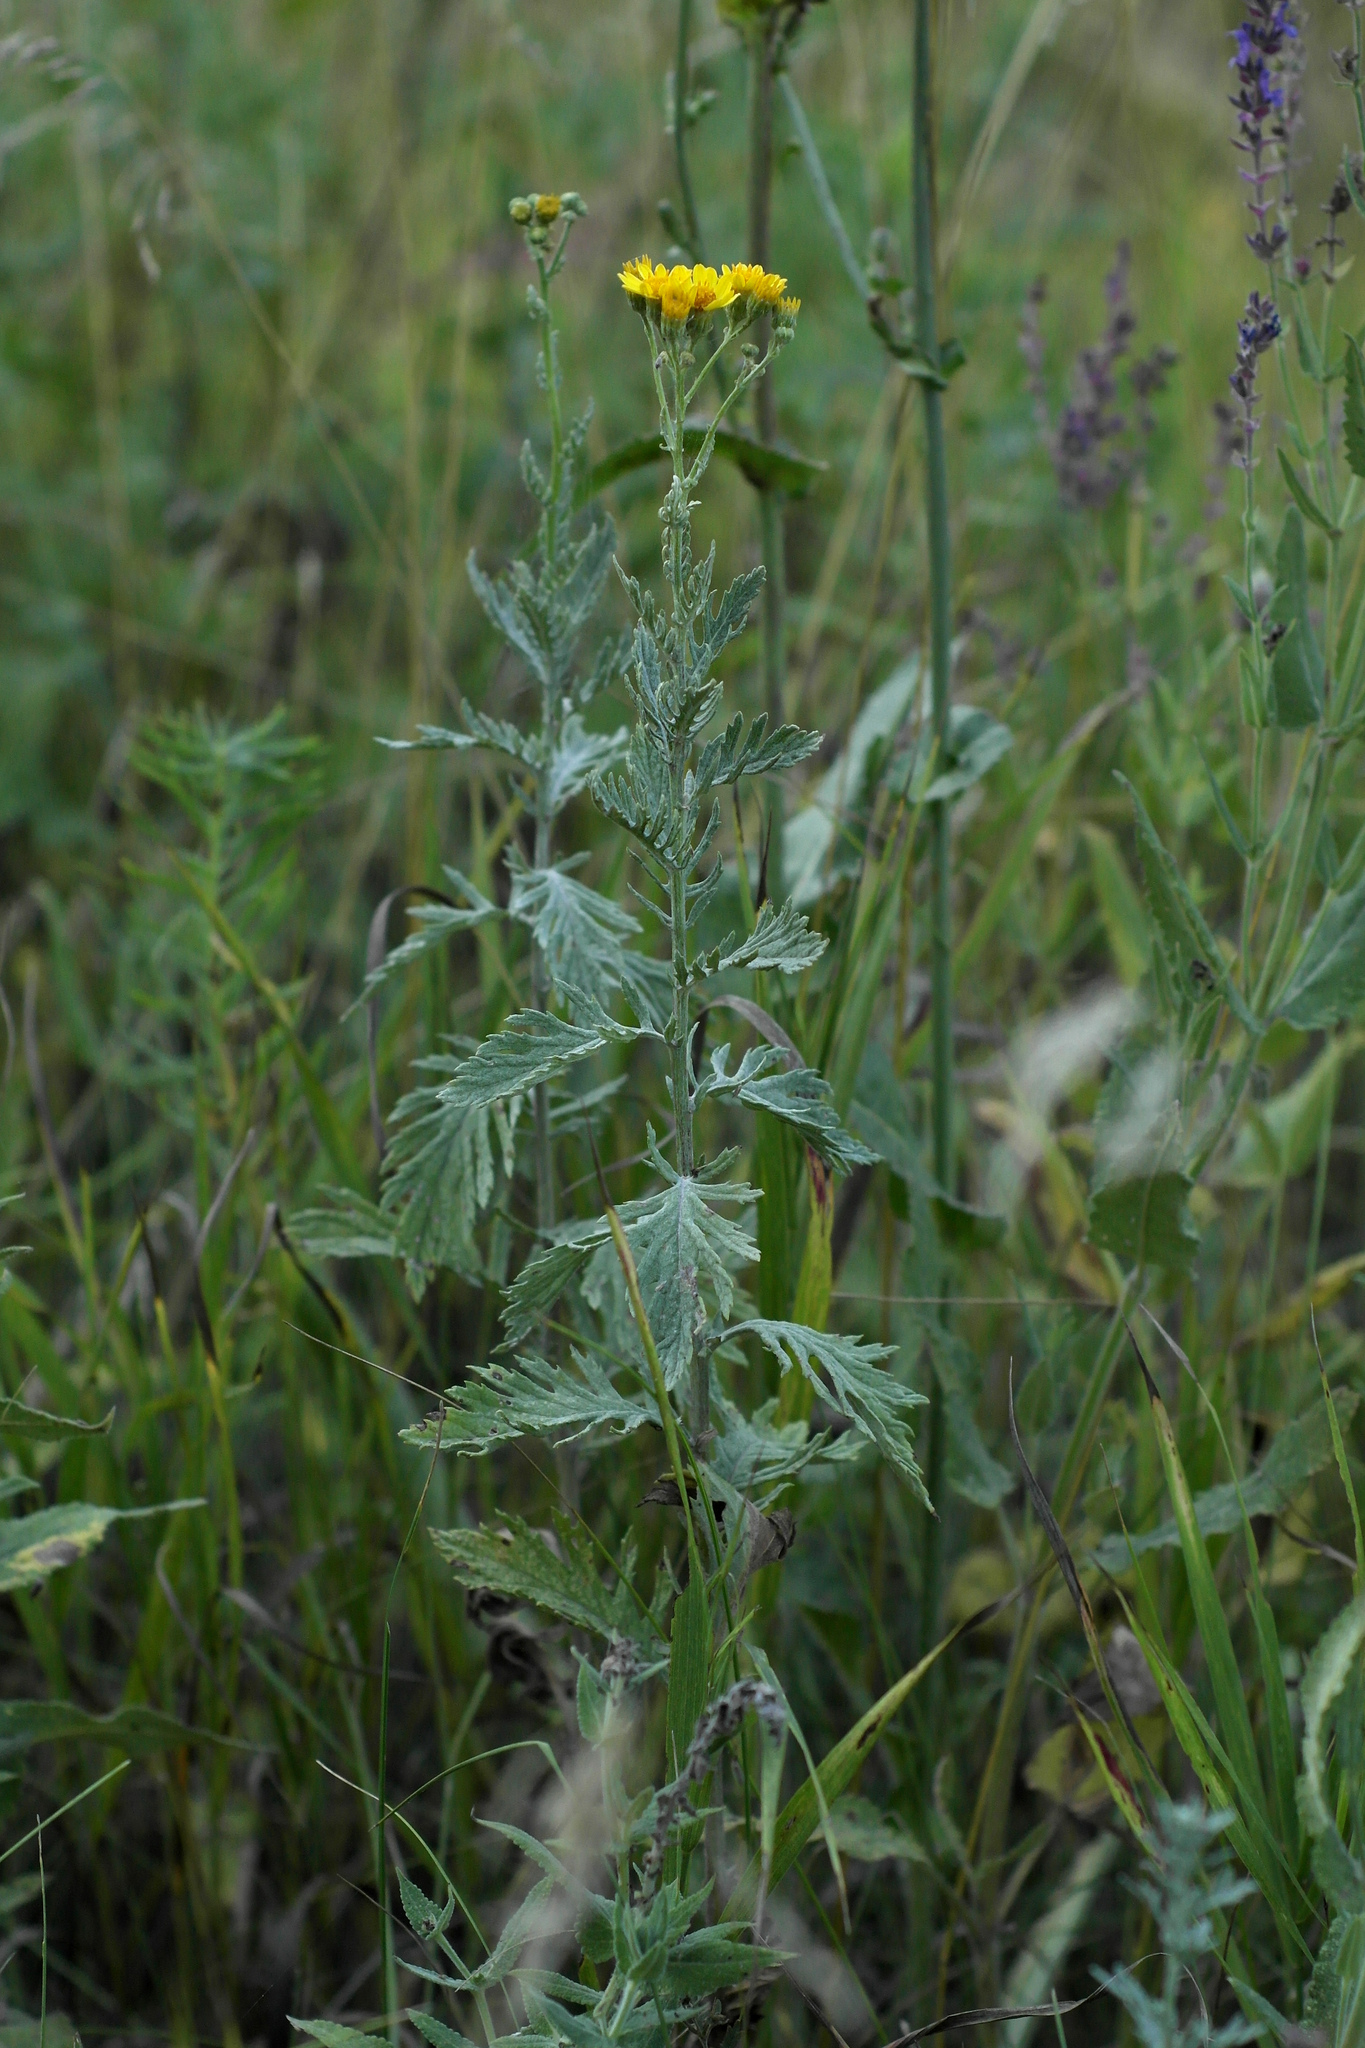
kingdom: Plantae
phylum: Tracheophyta
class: Magnoliopsida
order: Asterales
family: Asteraceae
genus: Jacobaea
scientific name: Jacobaea erucifolia
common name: Hoary ragwort
